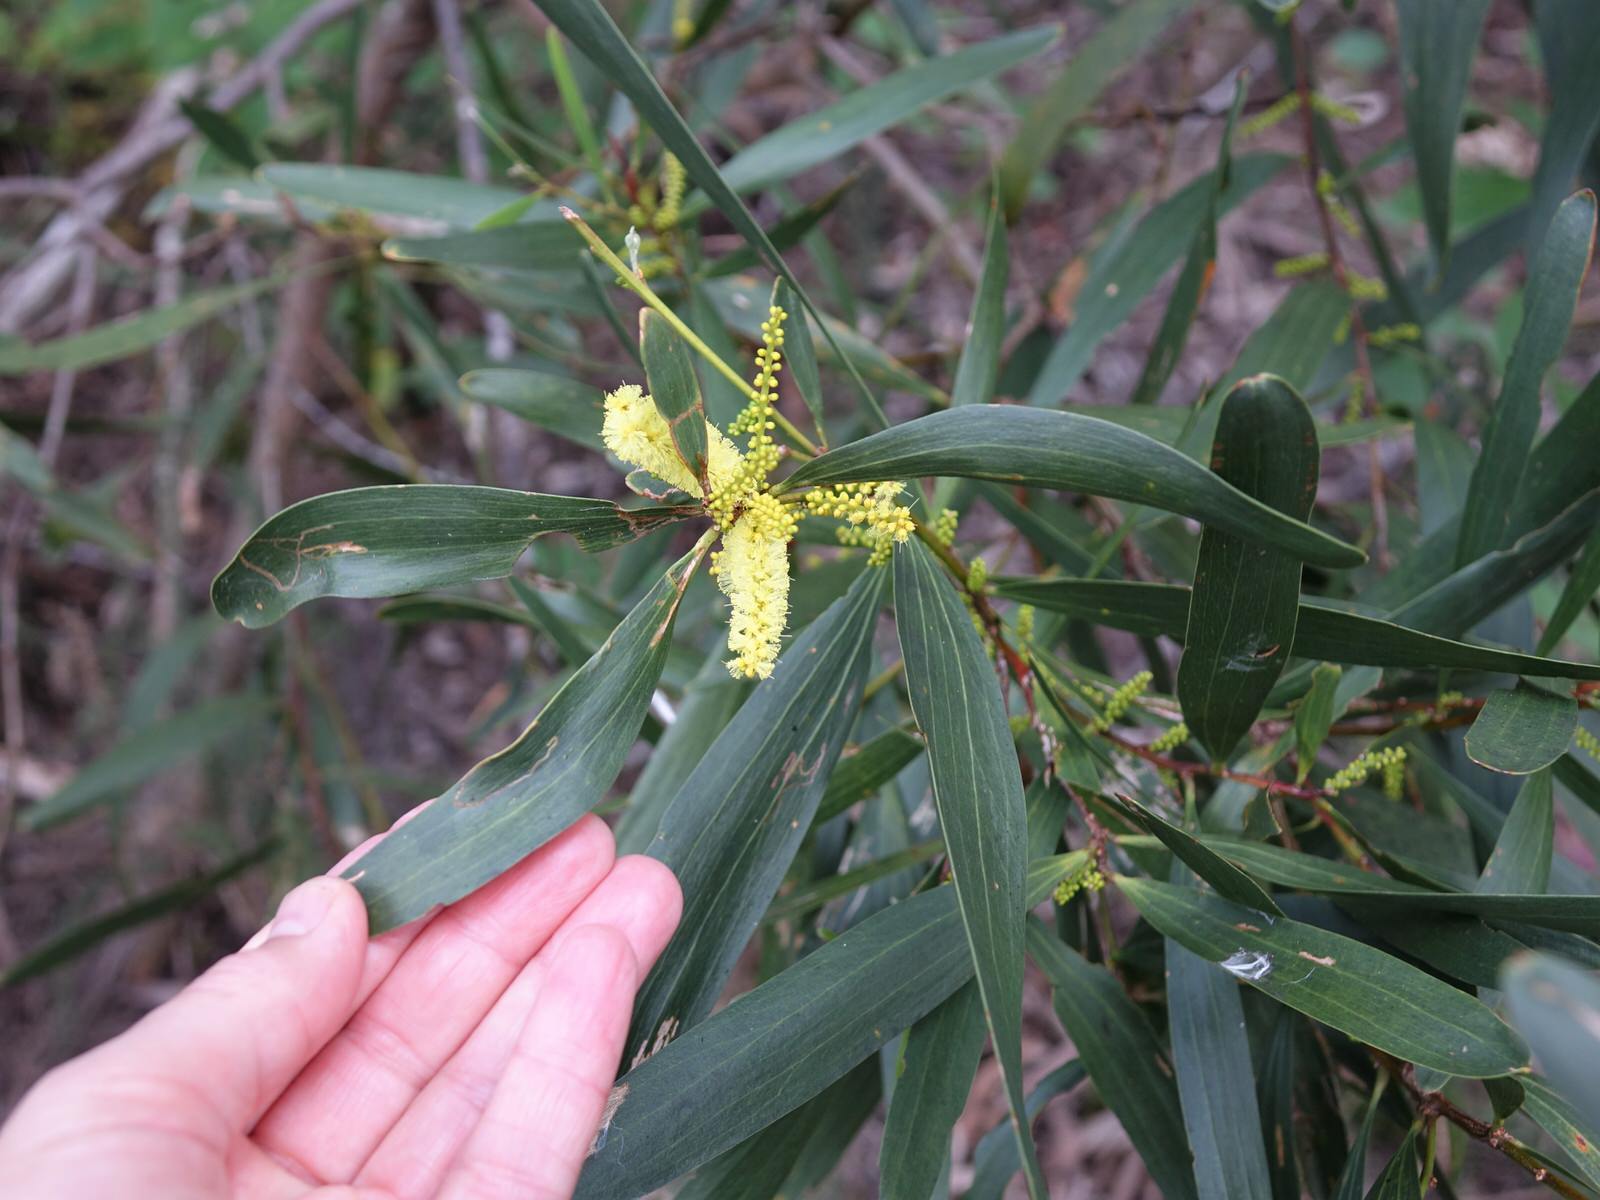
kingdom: Plantae
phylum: Tracheophyta
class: Magnoliopsida
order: Fabales
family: Fabaceae
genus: Acacia
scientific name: Acacia longifolia
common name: Sydney golden wattle
